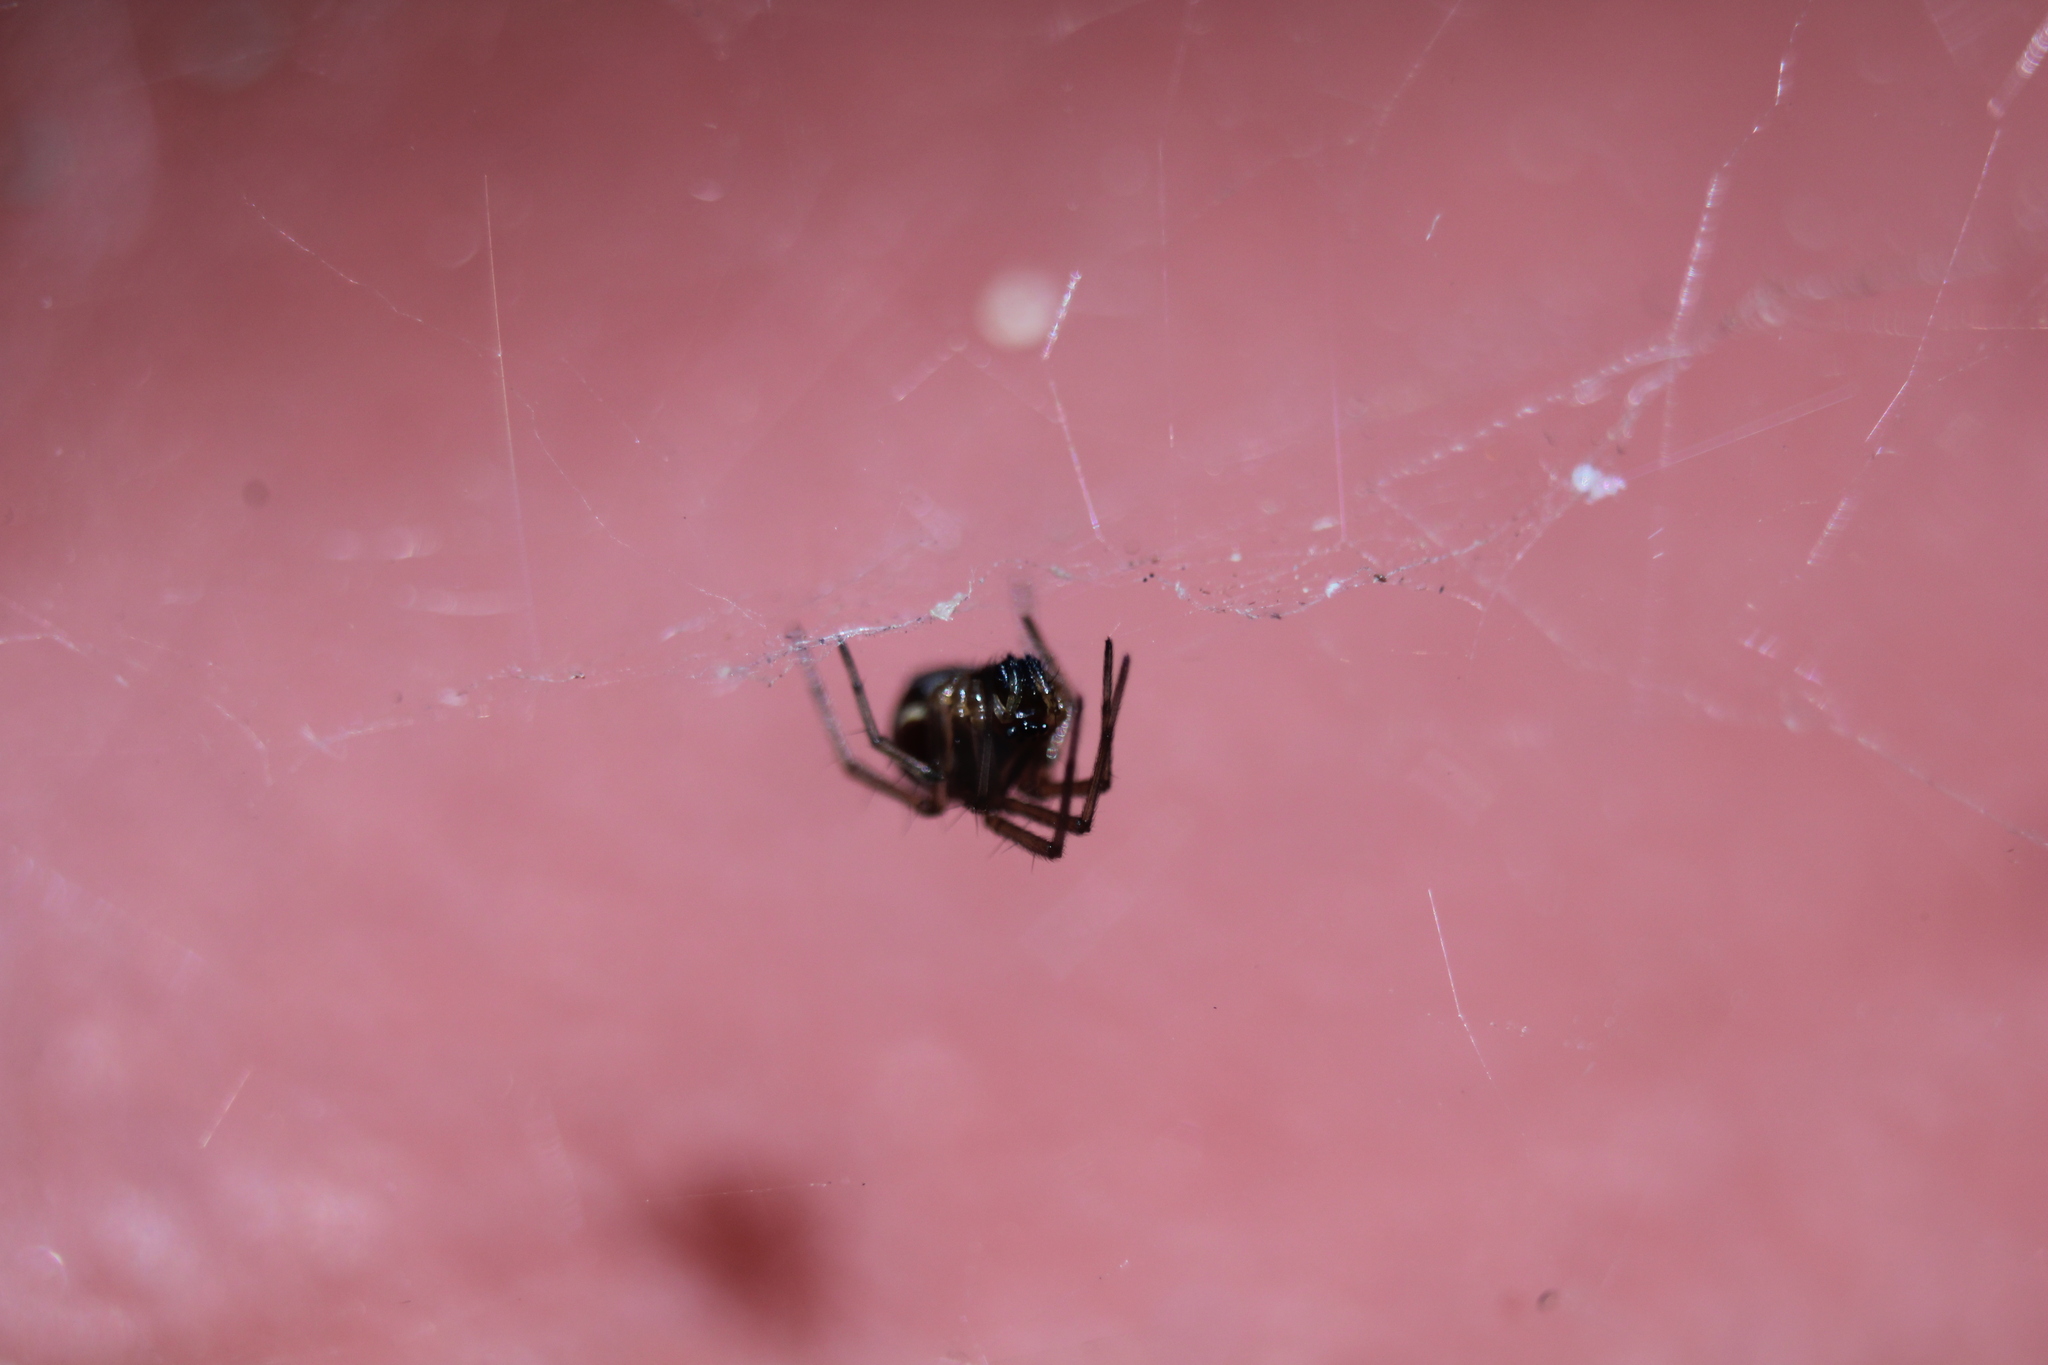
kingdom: Animalia
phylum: Arthropoda
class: Arachnida
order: Araneae
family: Linyphiidae
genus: Frontinella
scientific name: Frontinella pyramitela
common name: Bowl-and-doily spider
